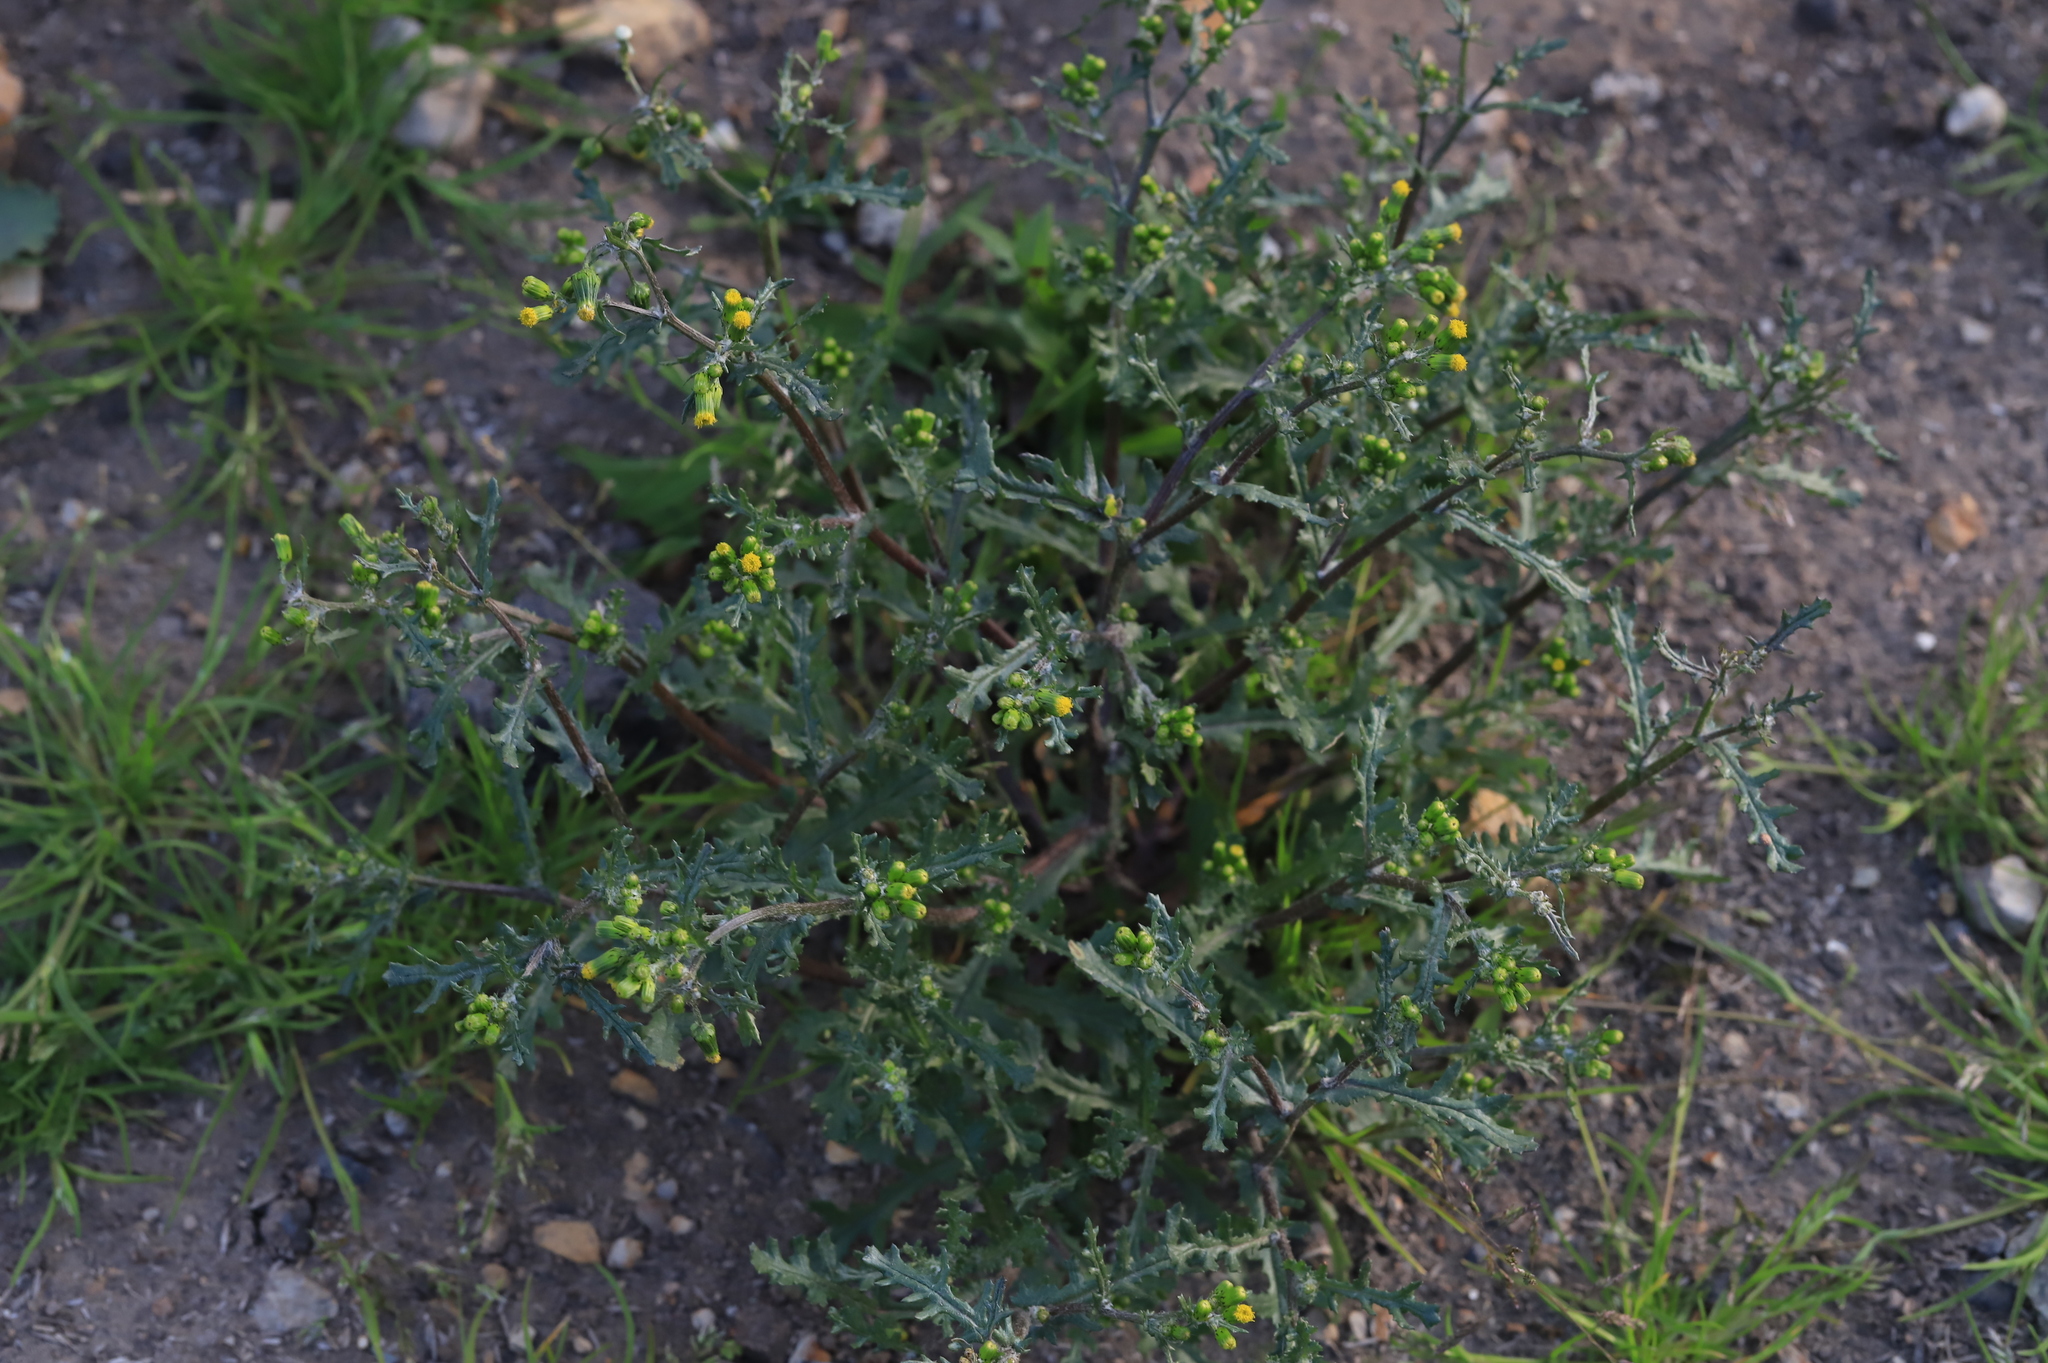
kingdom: Plantae
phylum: Tracheophyta
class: Magnoliopsida
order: Asterales
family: Asteraceae
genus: Senecio
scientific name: Senecio vulgaris
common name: Old-man-in-the-spring
